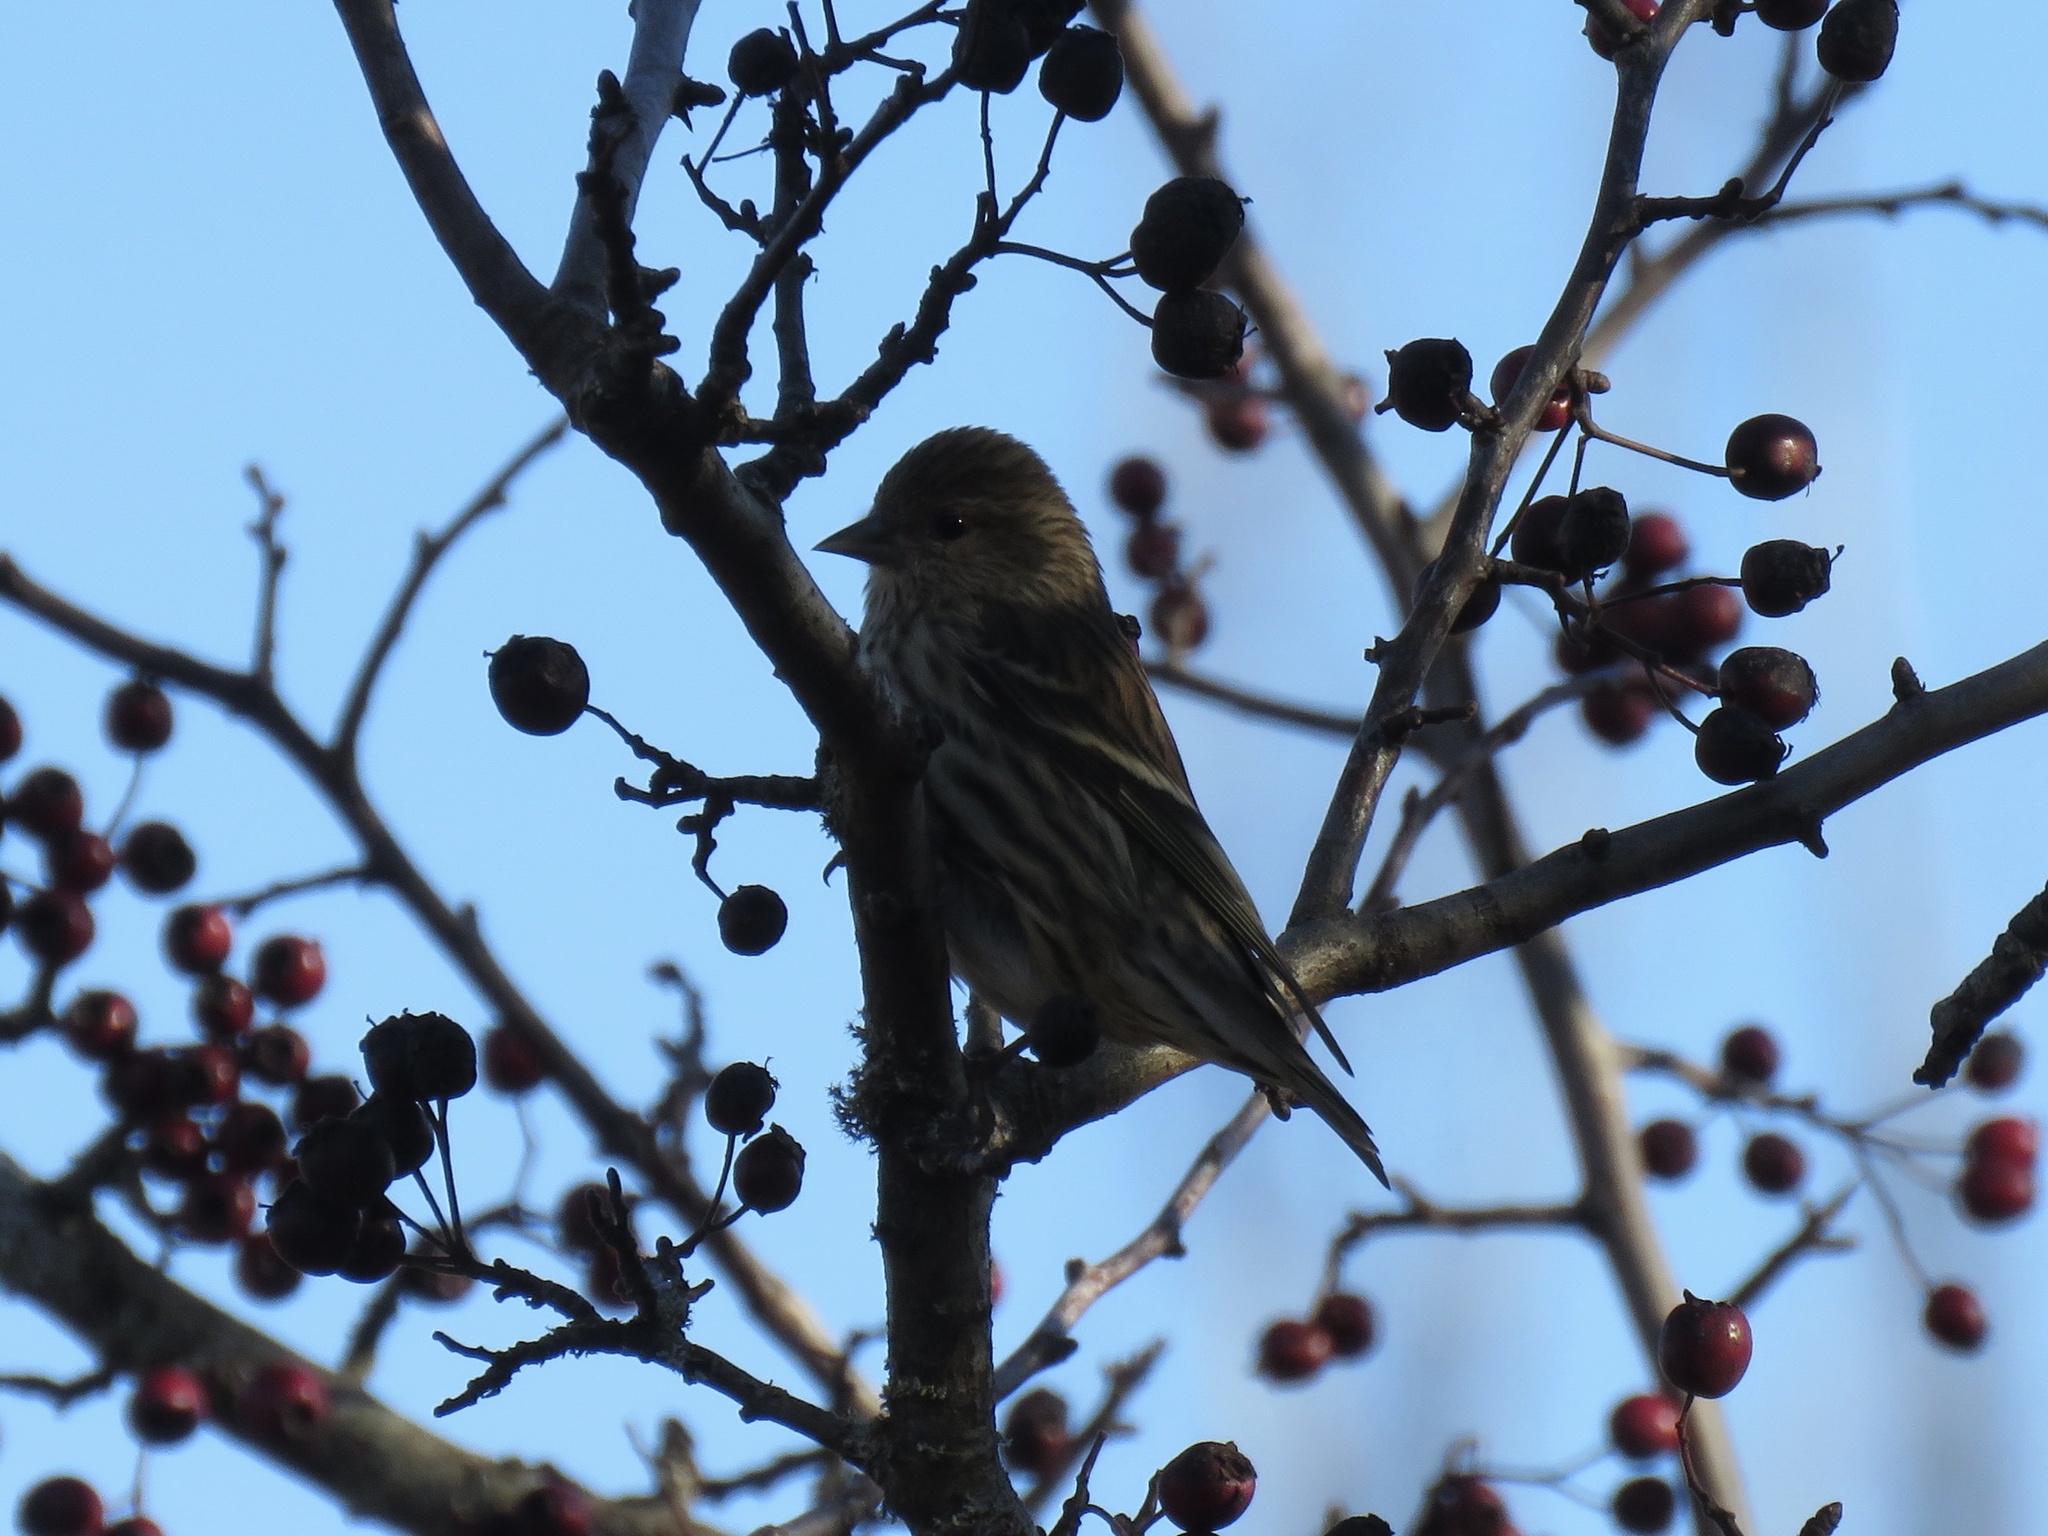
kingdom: Animalia
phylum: Chordata
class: Aves
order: Passeriformes
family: Fringillidae
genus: Spinus
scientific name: Spinus pinus
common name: Pine siskin
